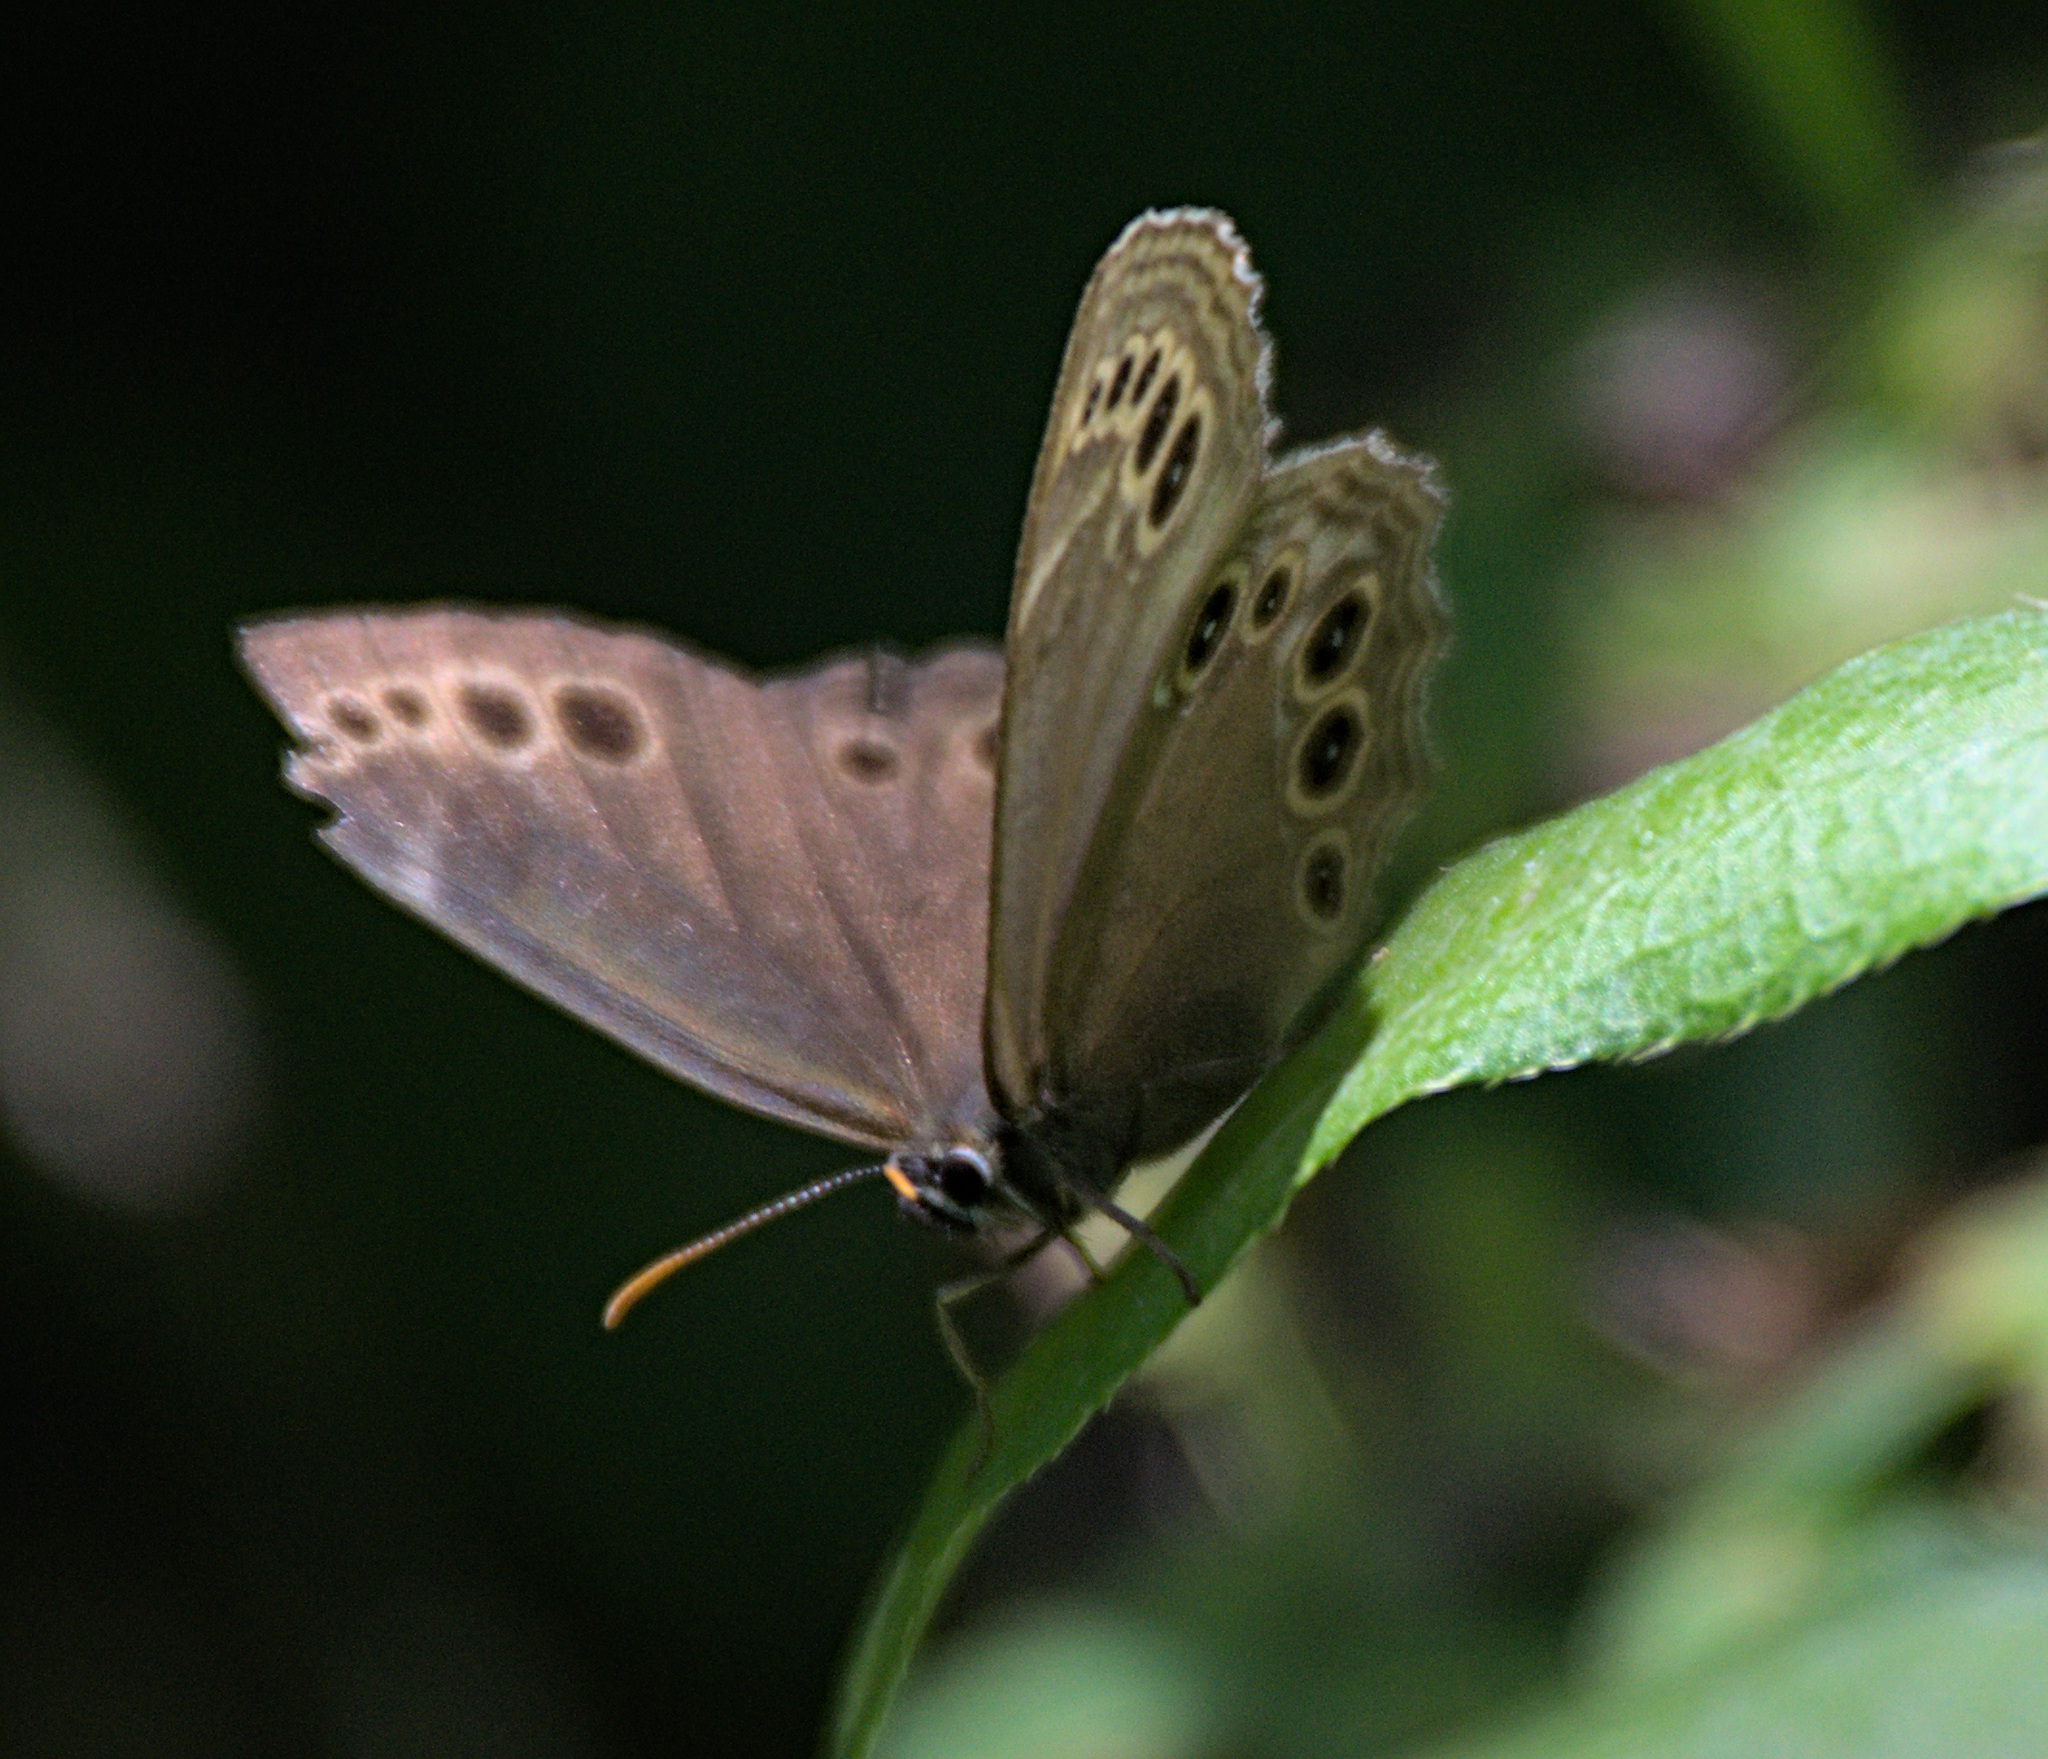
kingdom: Animalia
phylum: Arthropoda
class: Insecta
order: Lepidoptera
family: Nymphalidae
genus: Pararge
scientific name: Pararge Lopinga achine
